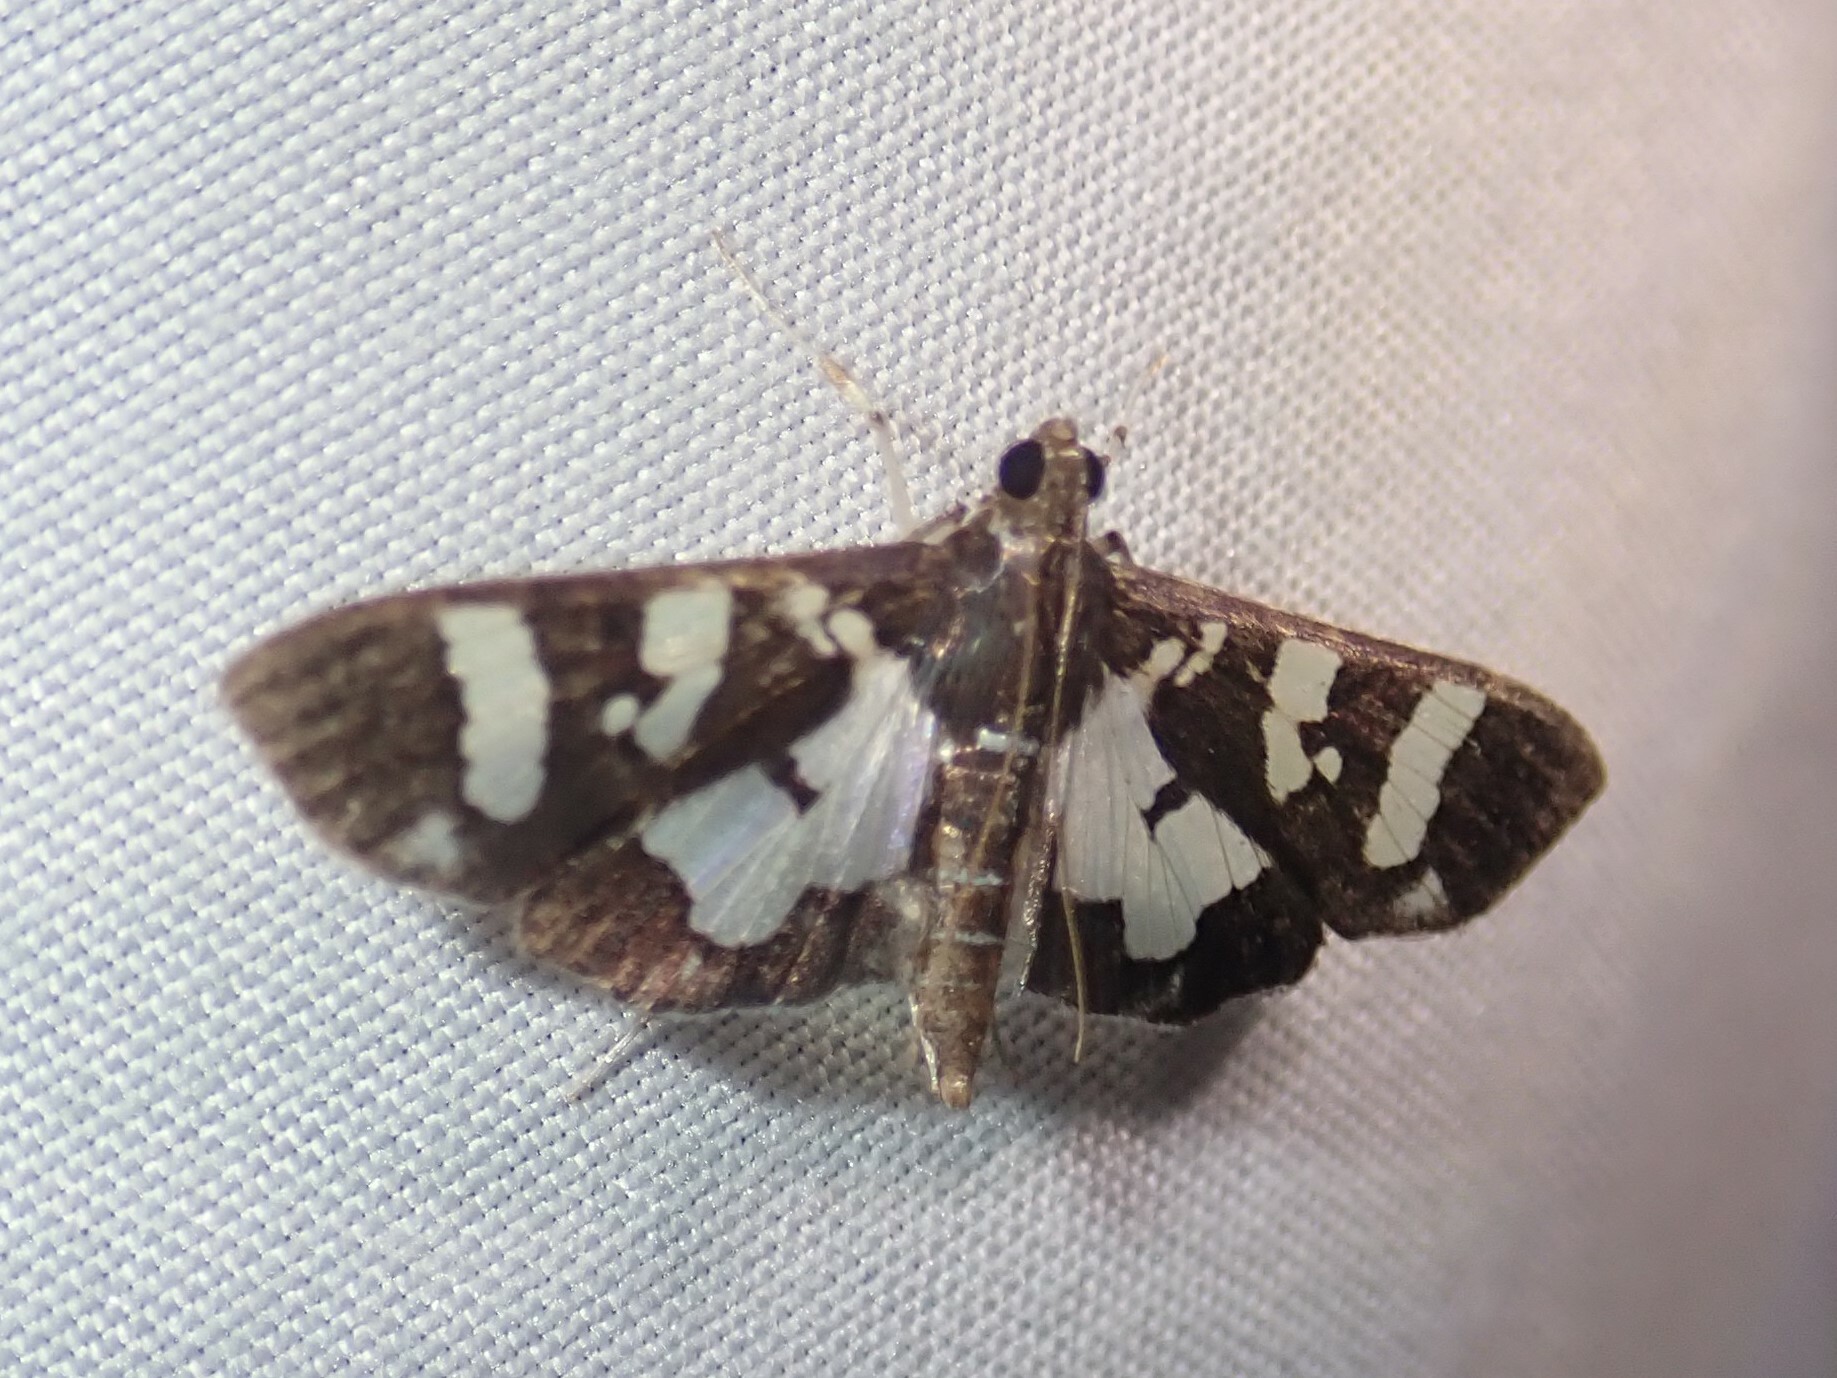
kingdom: Animalia
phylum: Arthropoda
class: Insecta
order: Lepidoptera
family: Crambidae
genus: Desmia
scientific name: Desmia bajulalis
